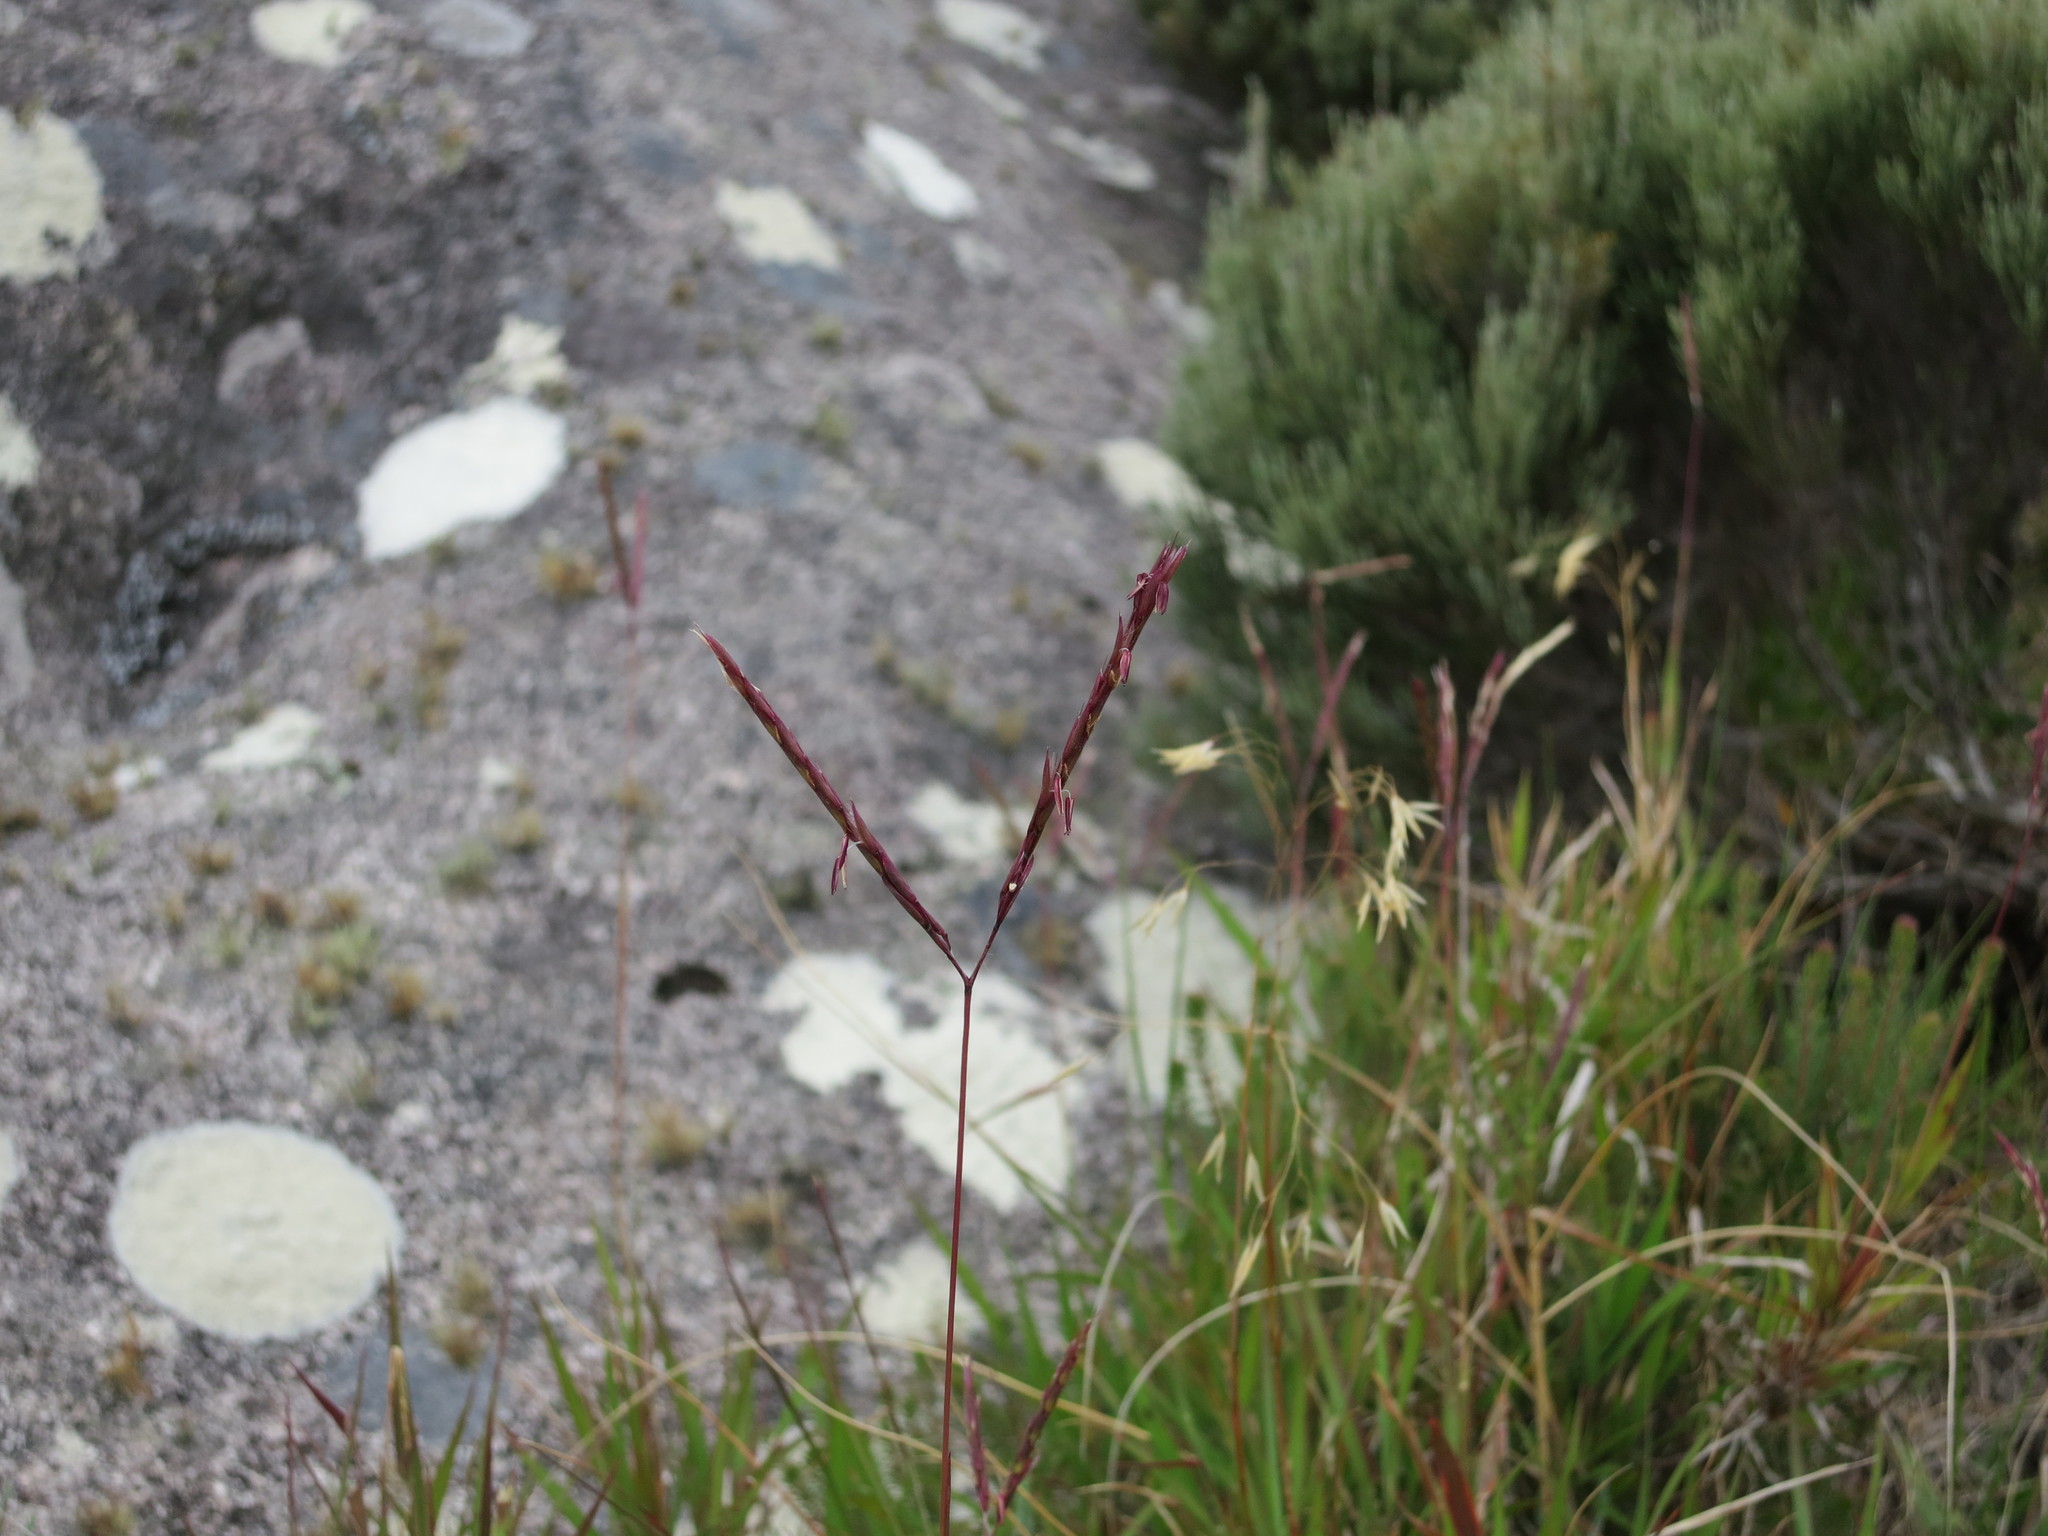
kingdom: Plantae
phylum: Tracheophyta
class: Liliopsida
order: Poales
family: Poaceae
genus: Andropogon
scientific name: Andropogon andringitrensis
